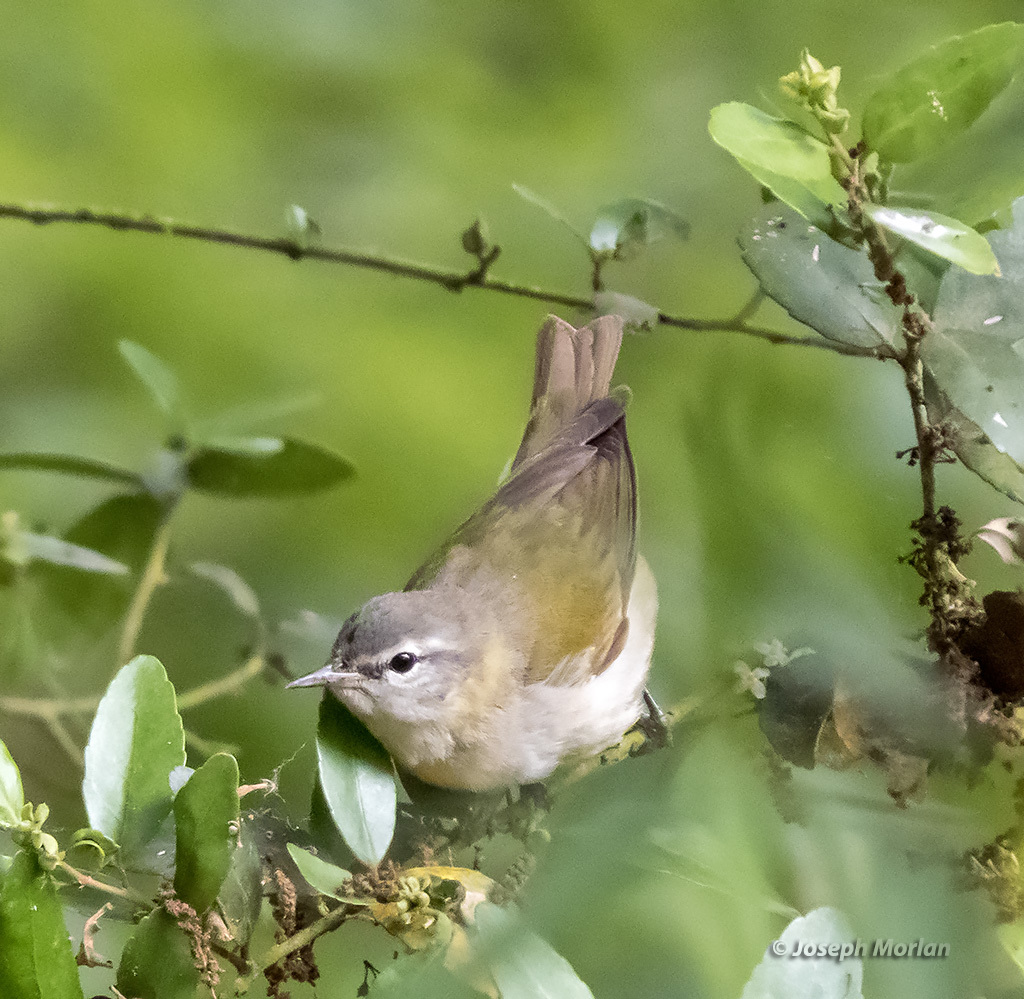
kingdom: Animalia
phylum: Chordata
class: Aves
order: Passeriformes
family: Parulidae
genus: Leiothlypis
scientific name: Leiothlypis peregrina
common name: Tennessee warbler
